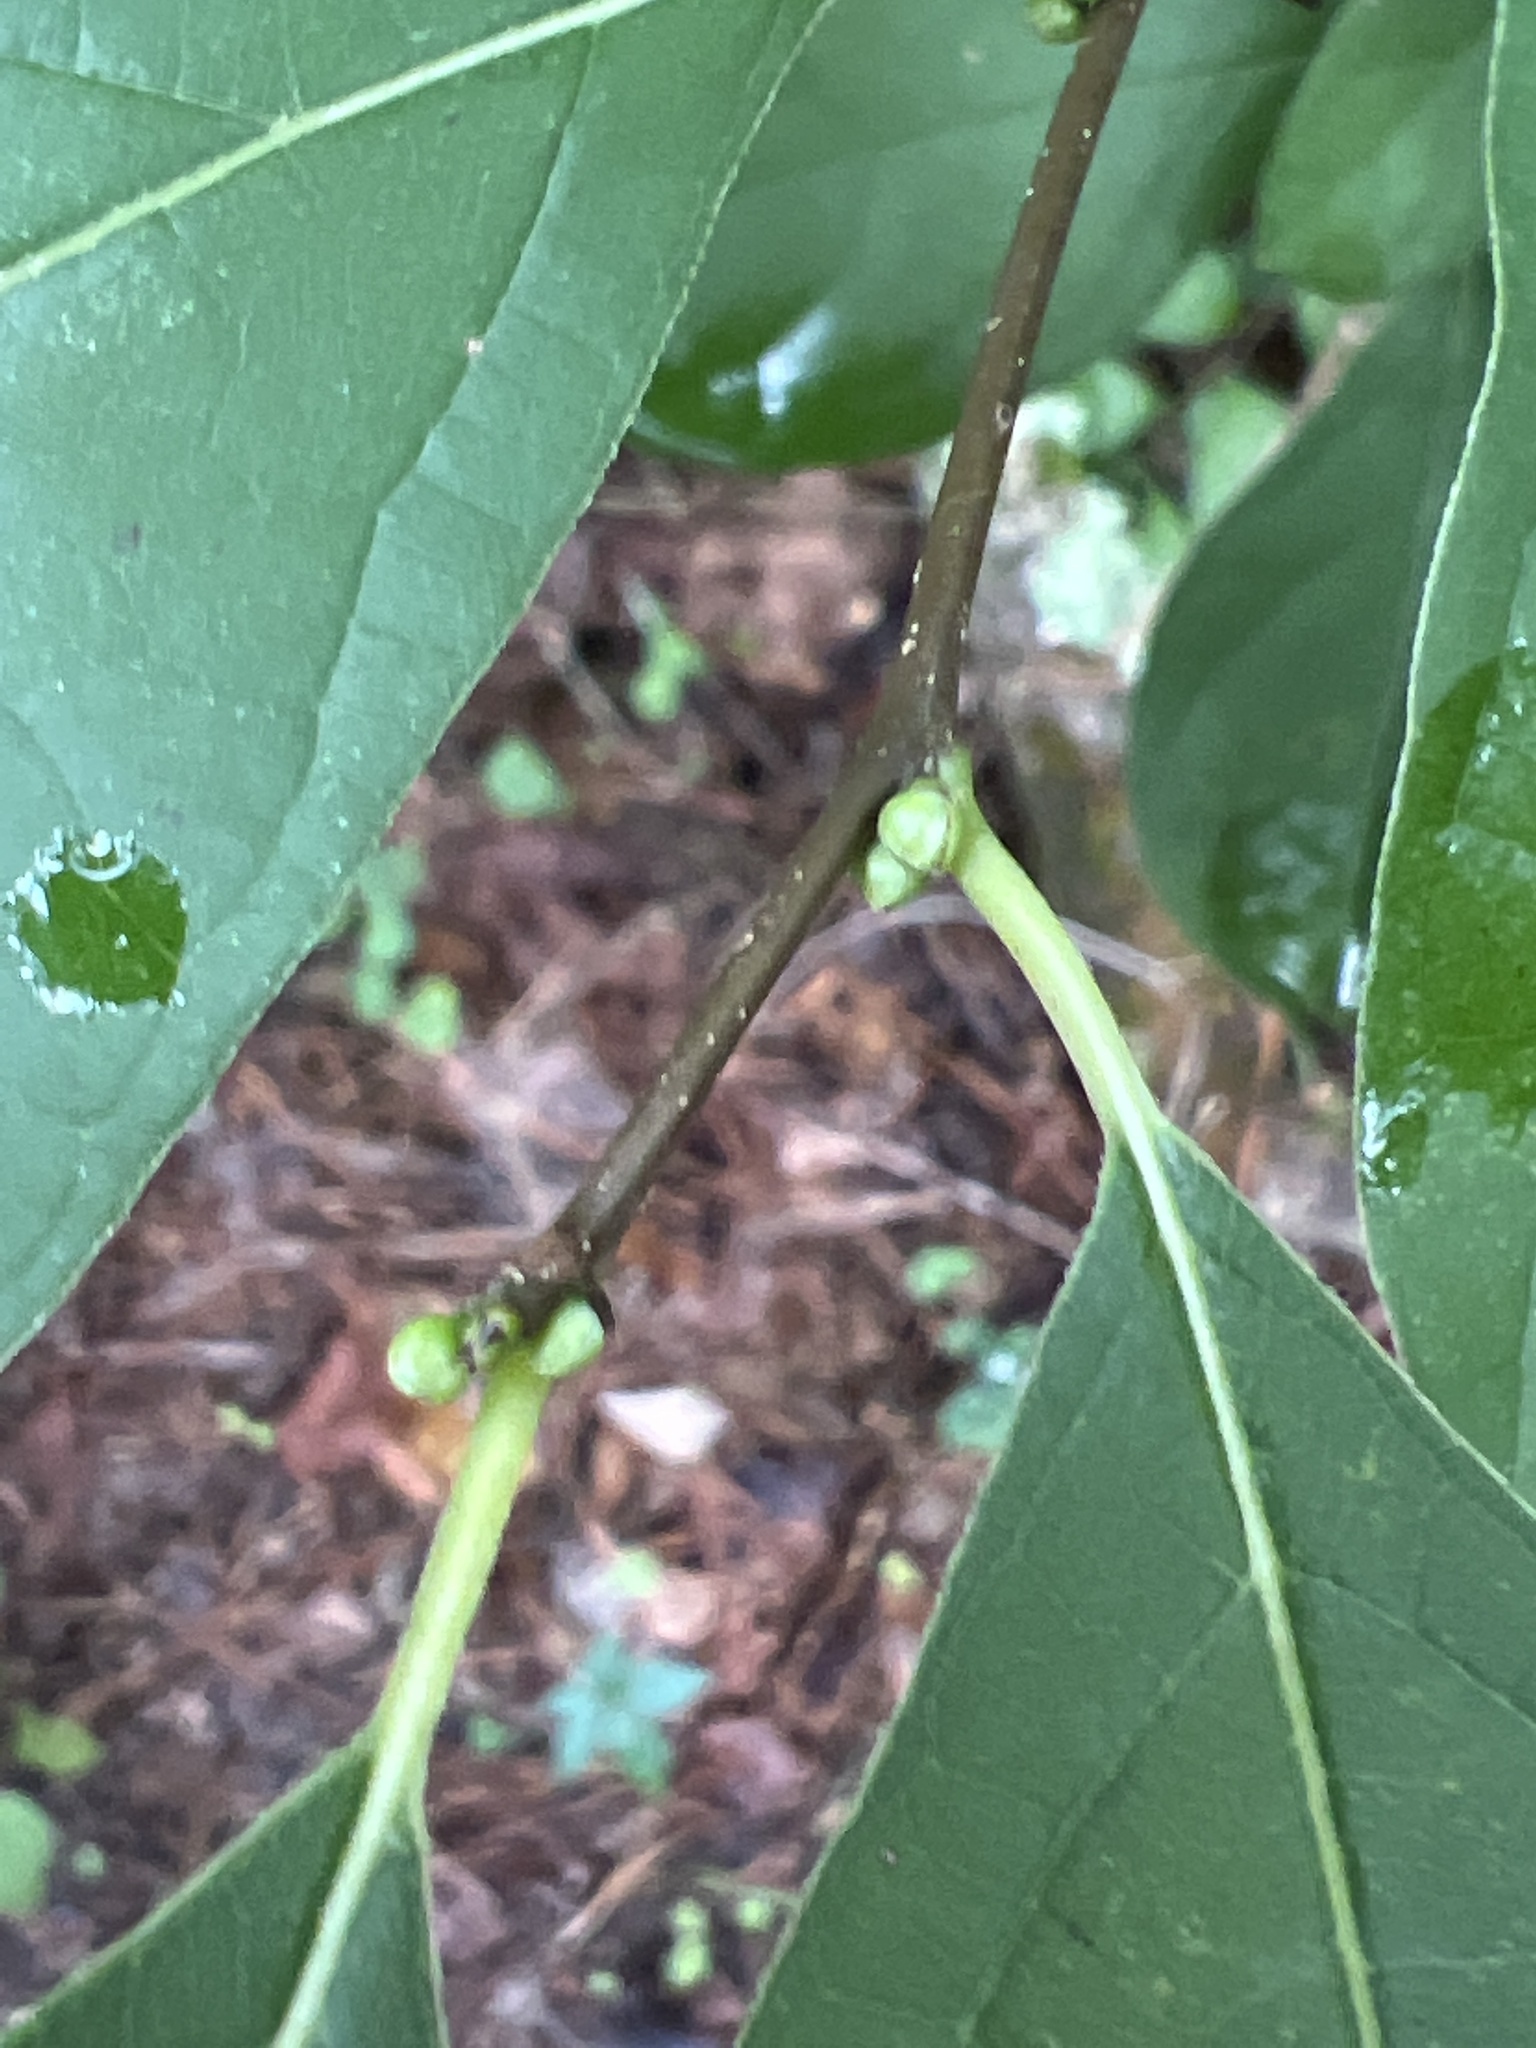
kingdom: Plantae
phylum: Tracheophyta
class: Magnoliopsida
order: Laurales
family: Lauraceae
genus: Lindera
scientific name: Lindera benzoin
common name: Spicebush
